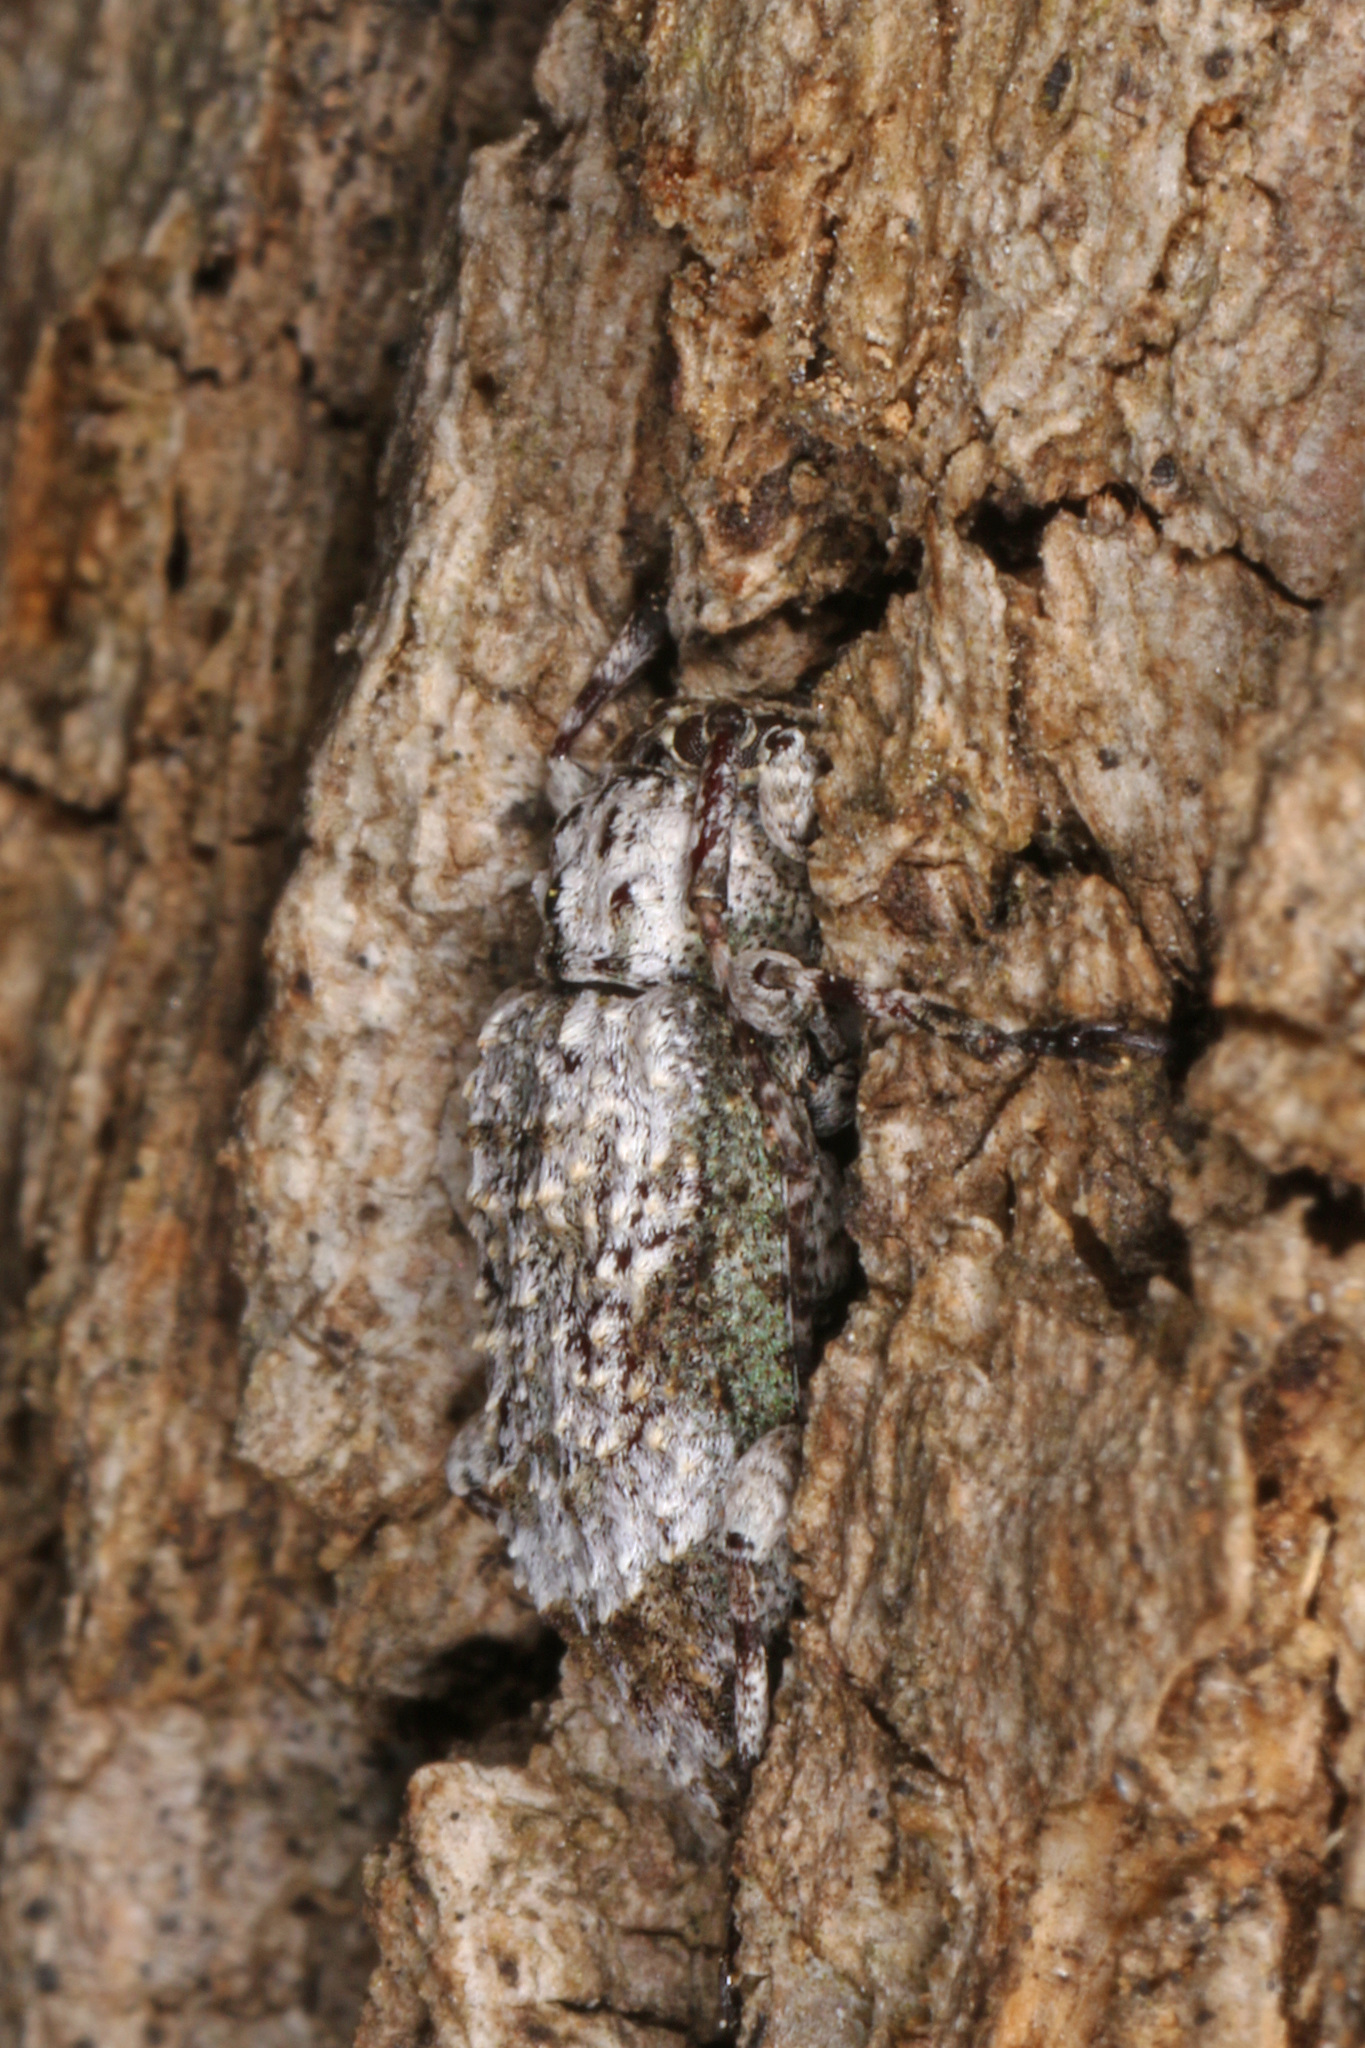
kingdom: Animalia
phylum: Arthropoda
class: Insecta
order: Coleoptera
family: Cerambycidae
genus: Leptostylus
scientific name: Leptostylus asperatus
